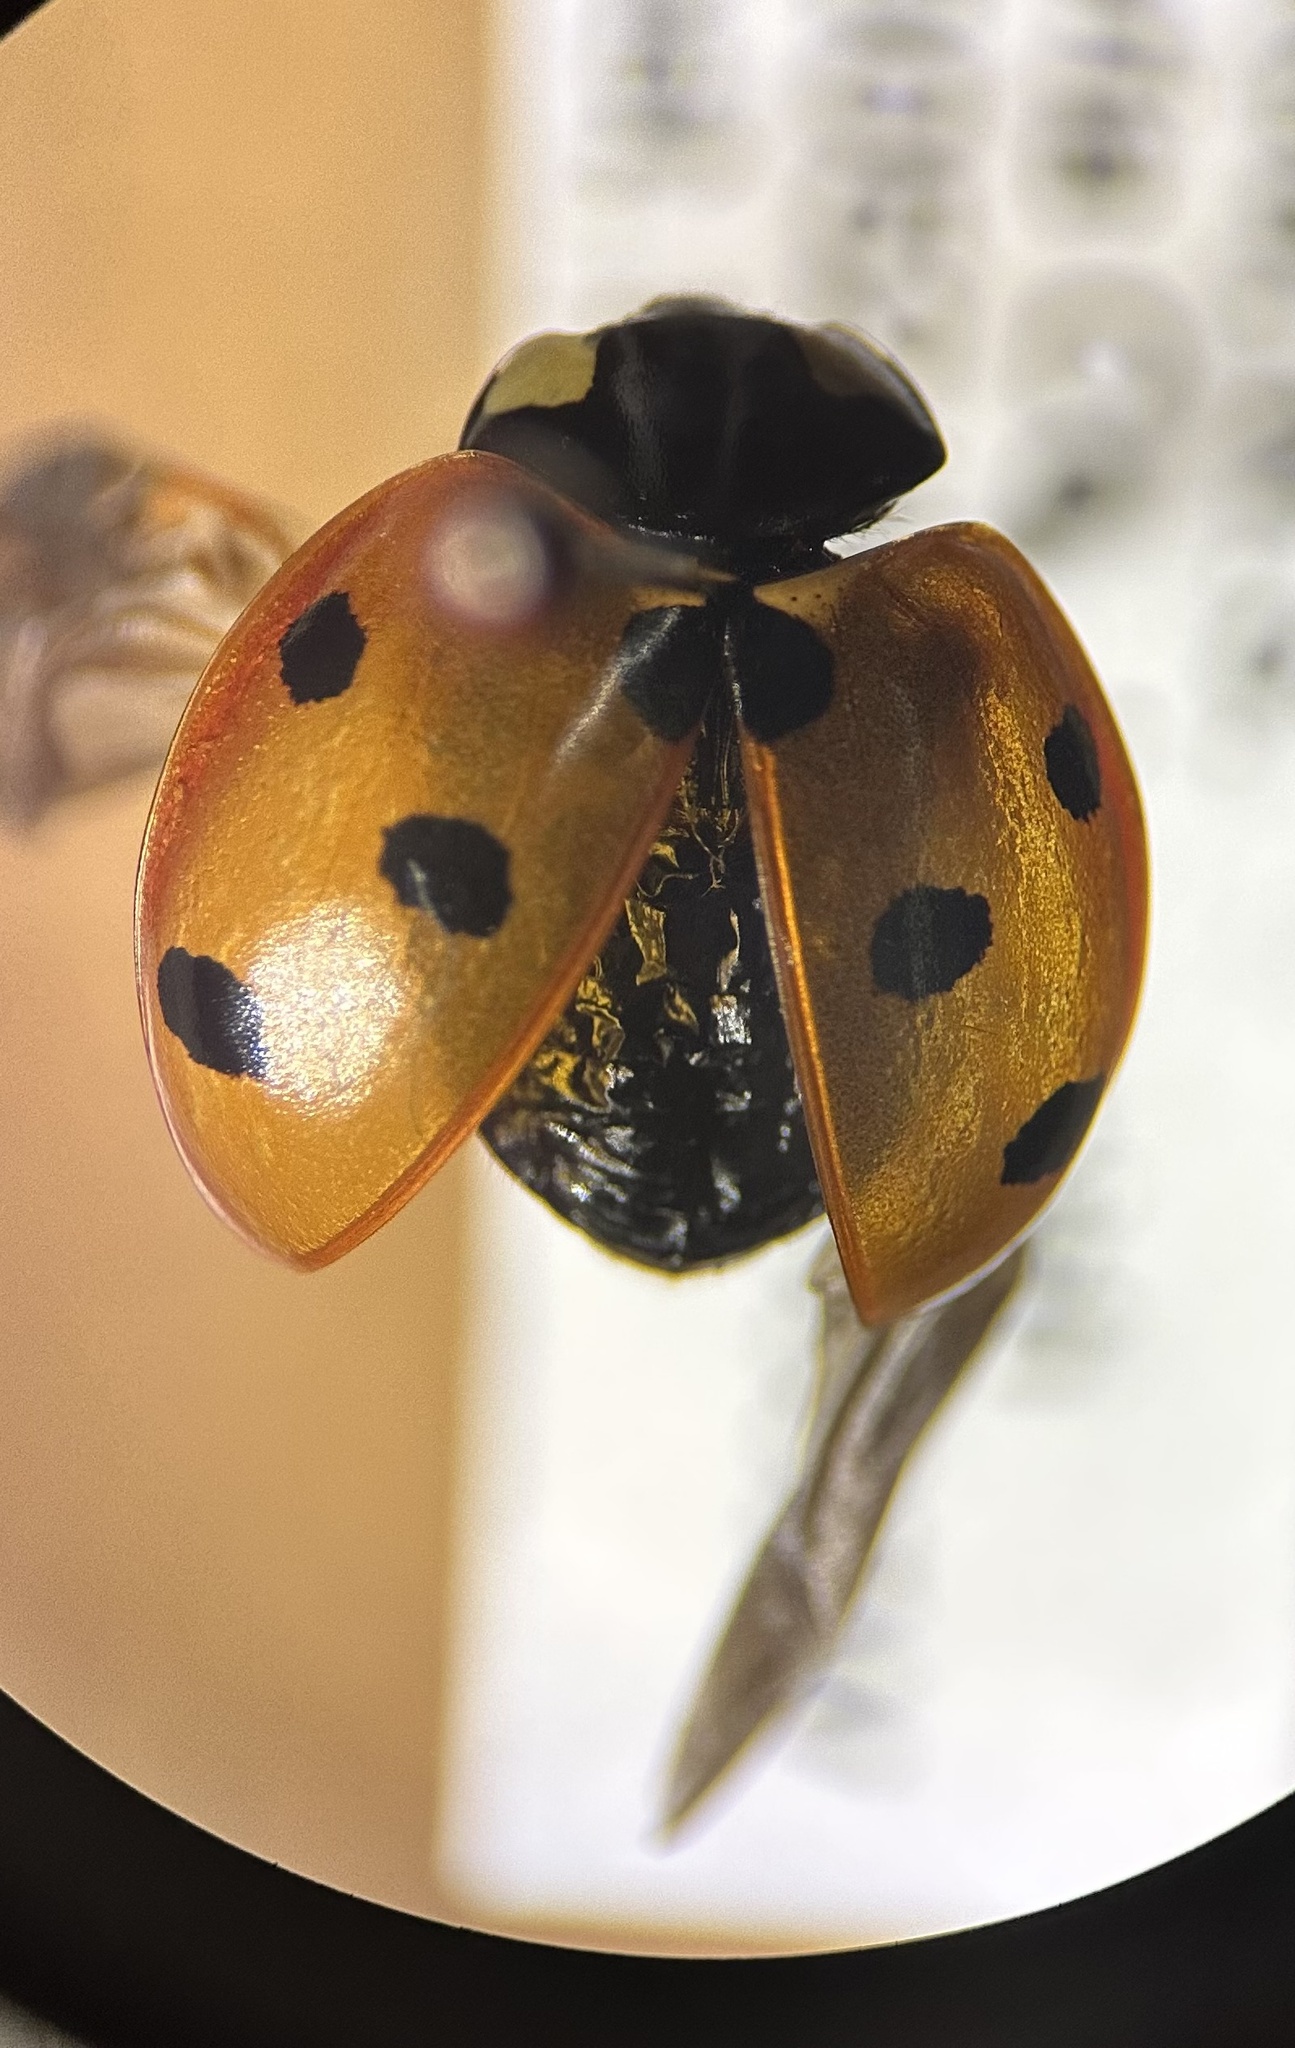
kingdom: Animalia
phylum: Arthropoda
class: Insecta
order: Coleoptera
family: Coccinellidae
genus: Coccinella
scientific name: Coccinella septempunctata
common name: Sevenspotted lady beetle
